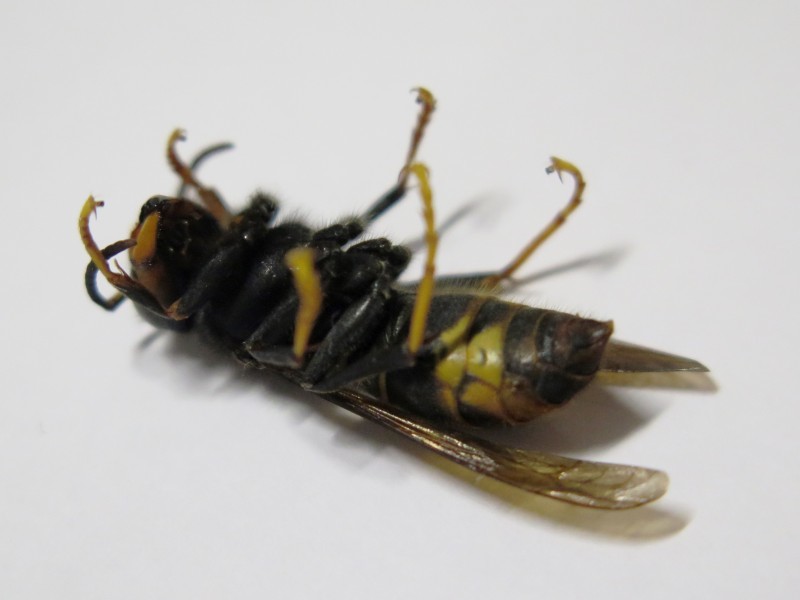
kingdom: Animalia
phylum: Arthropoda
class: Insecta
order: Hymenoptera
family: Vespidae
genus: Vespa
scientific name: Vespa velutina
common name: Asian hornet
